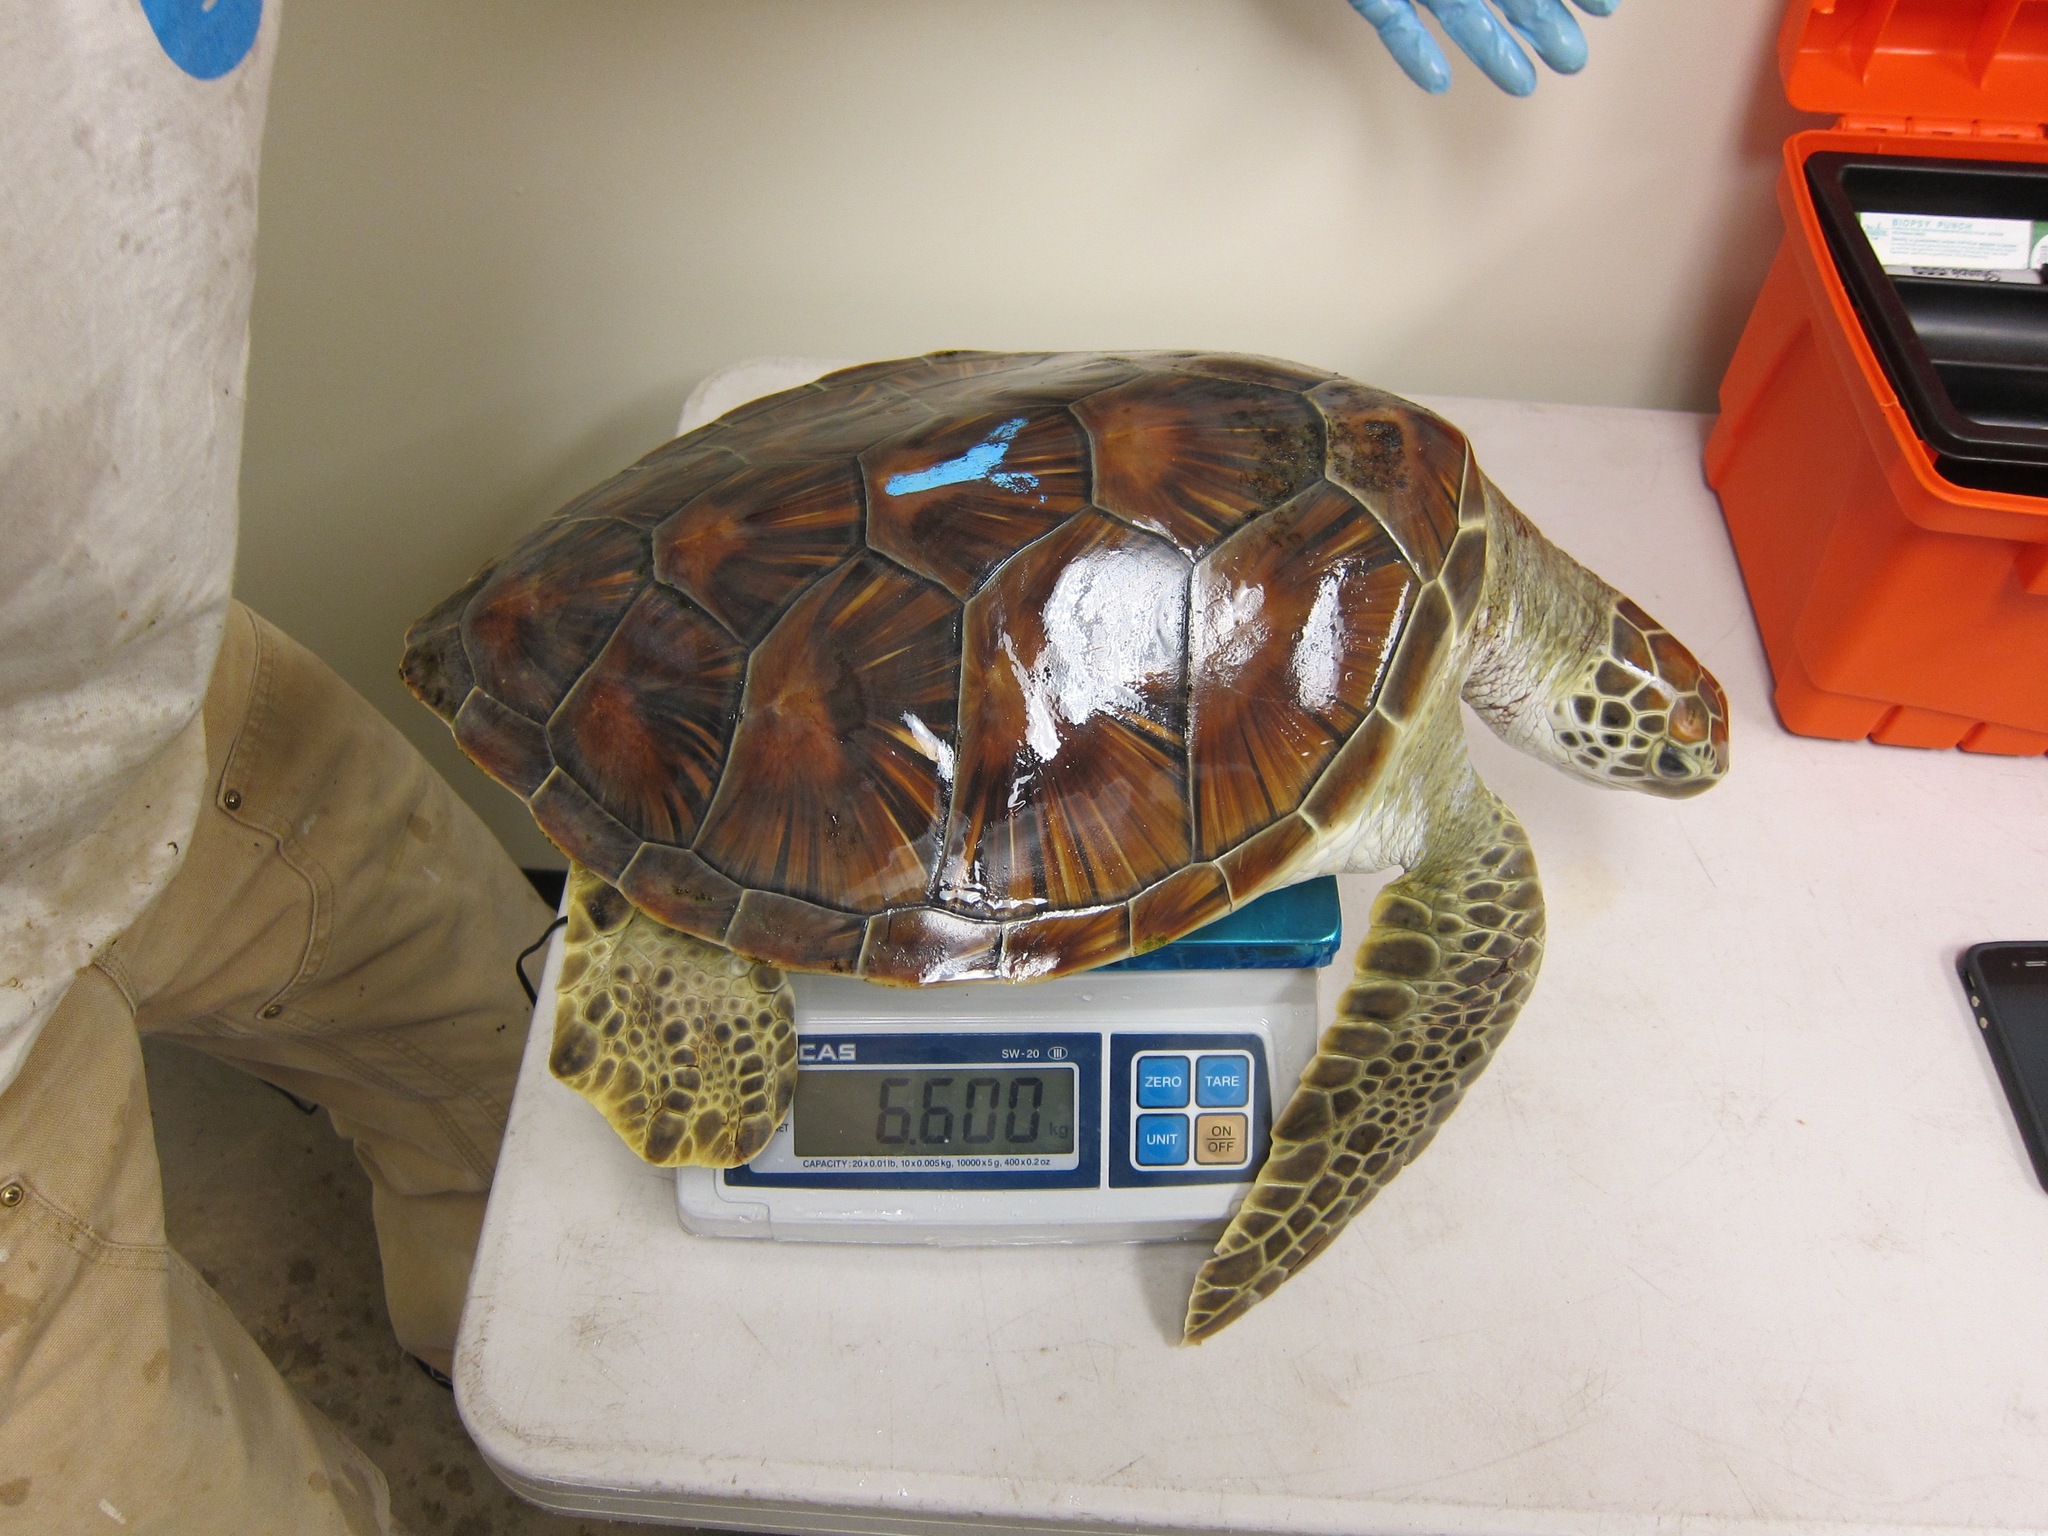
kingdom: Animalia
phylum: Chordata
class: Testudines
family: Cheloniidae
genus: Chelonia
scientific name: Chelonia mydas
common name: Green turtle
